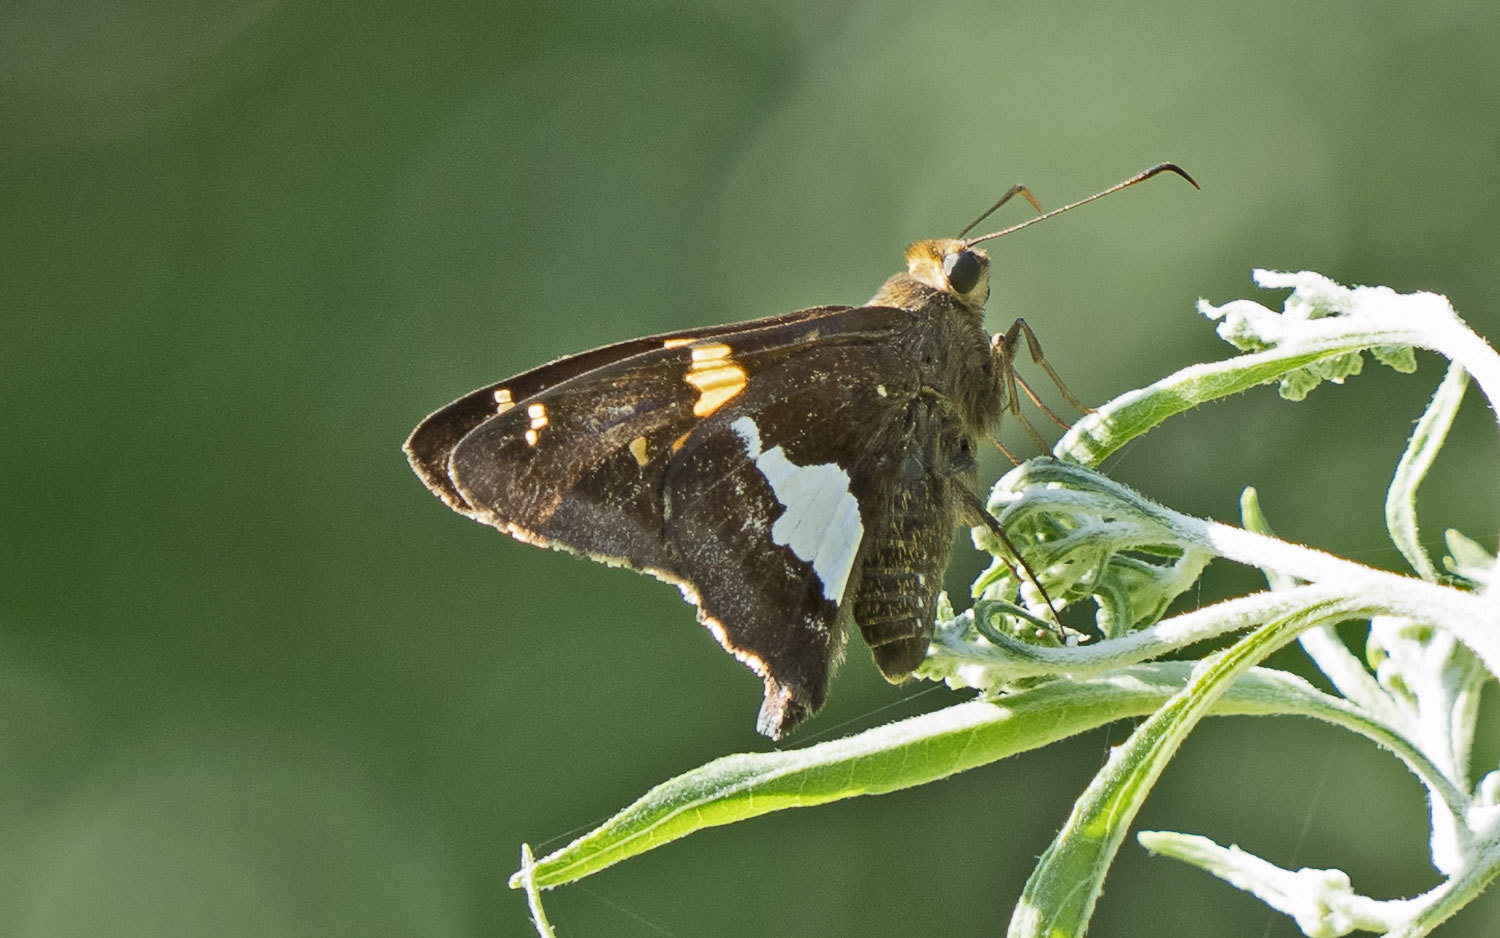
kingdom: Animalia
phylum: Arthropoda
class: Insecta
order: Lepidoptera
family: Hesperiidae
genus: Epargyreus
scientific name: Epargyreus clarus
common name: Silver-spotted skipper
